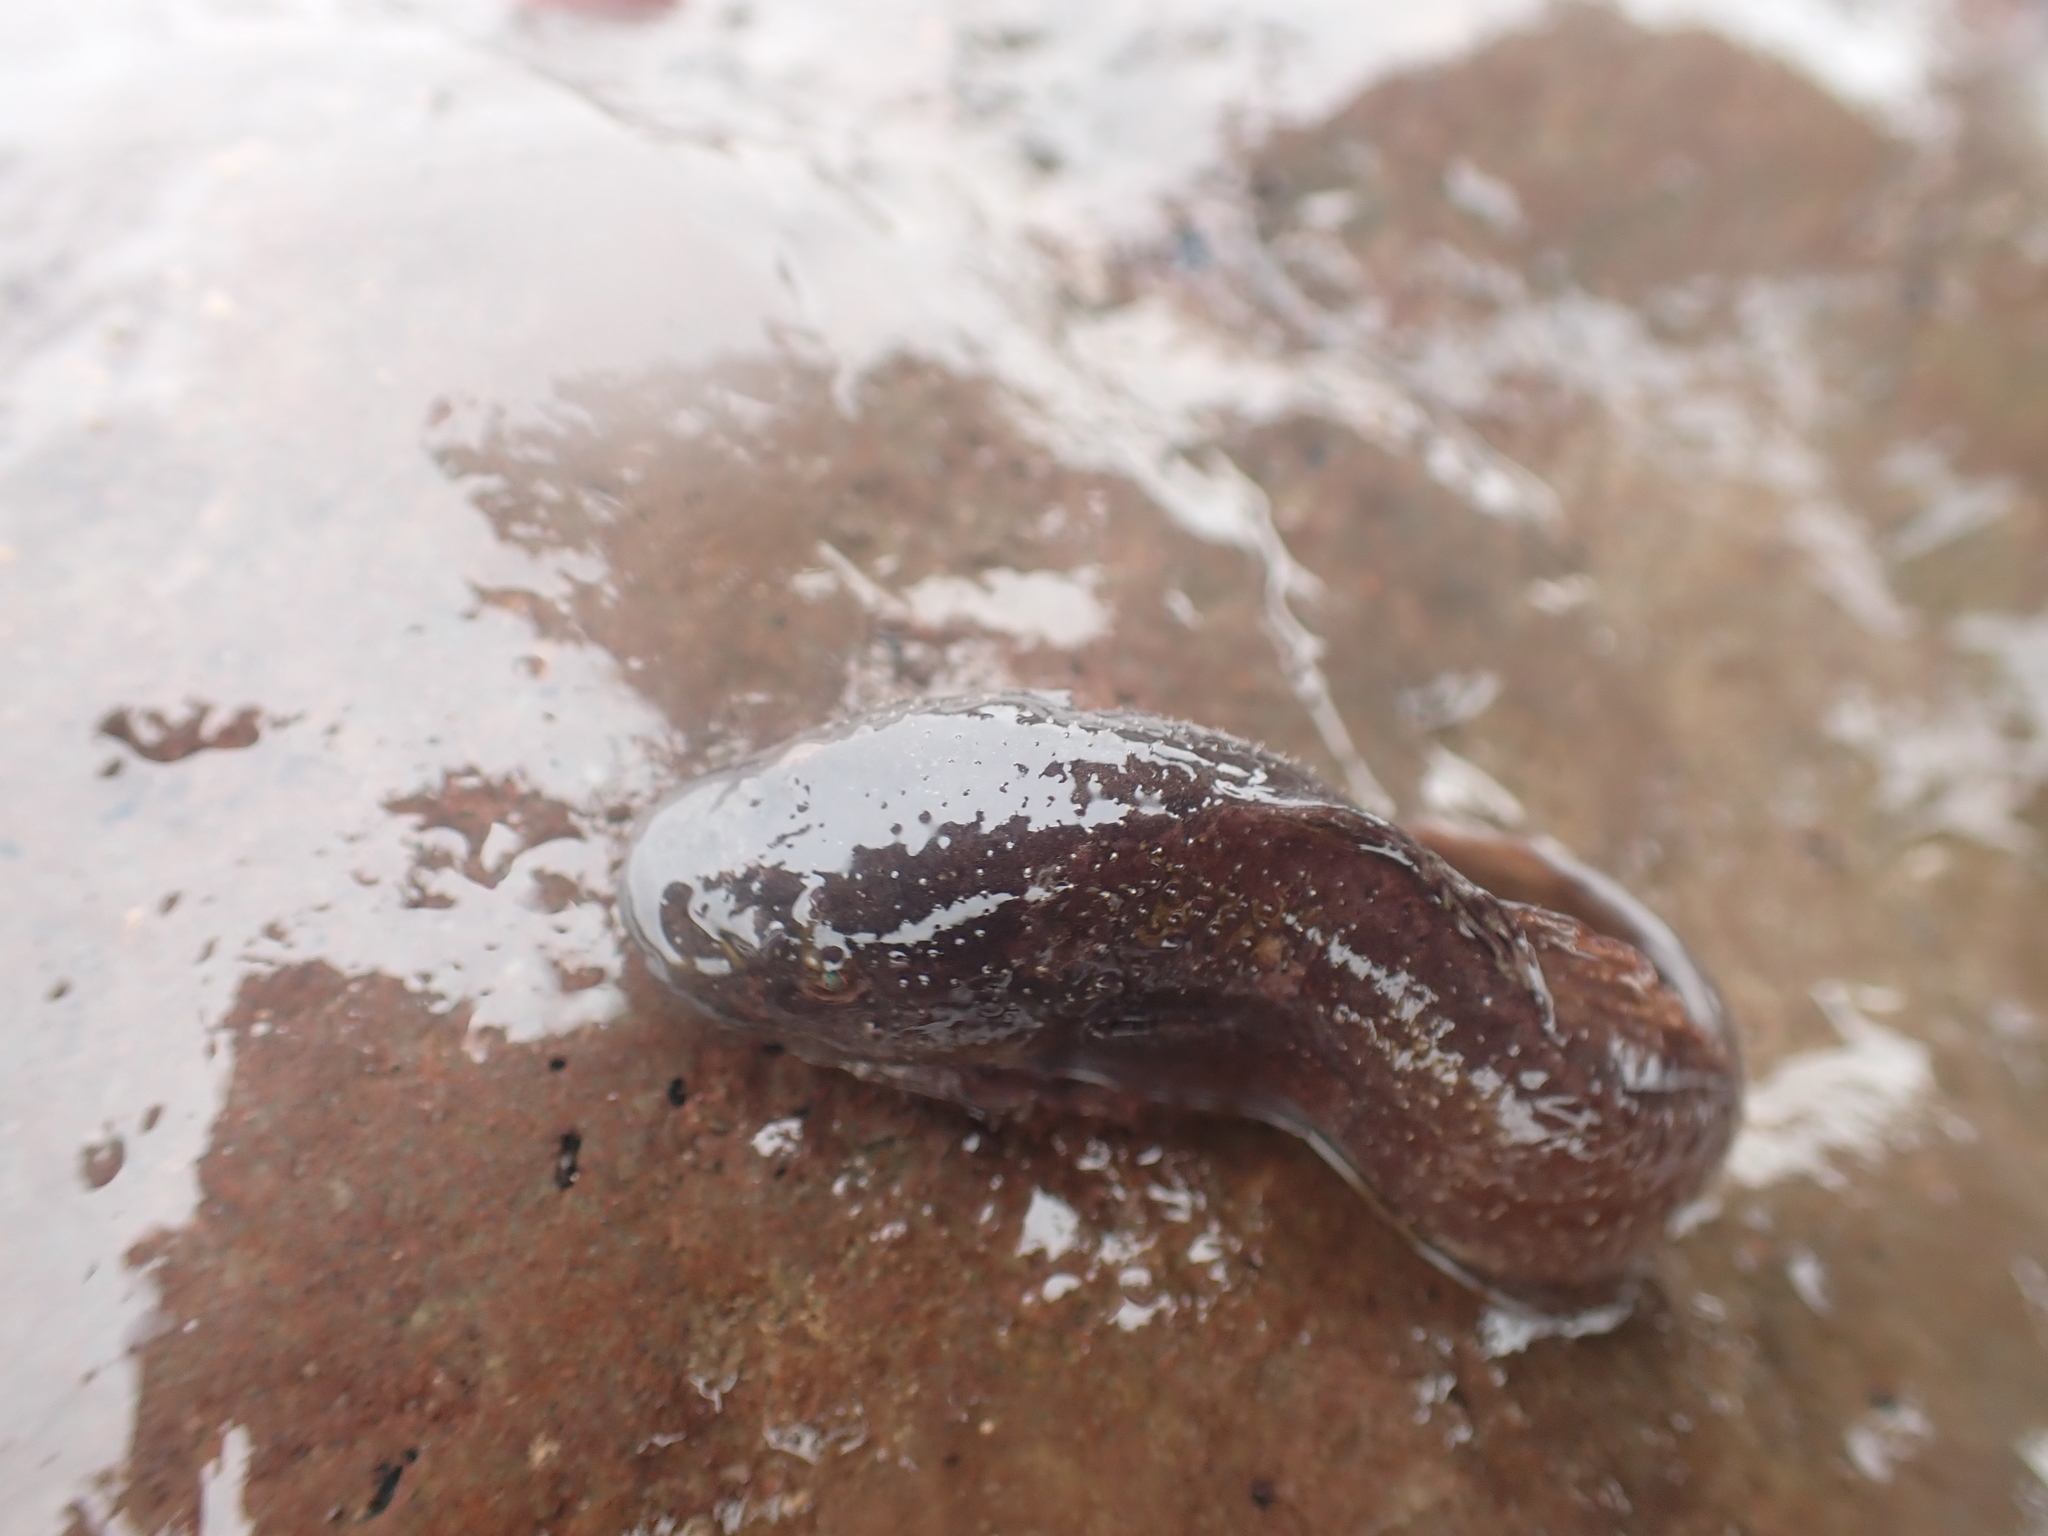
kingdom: Animalia
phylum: Chordata
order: Scorpaeniformes
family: Liparidae
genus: Liparis
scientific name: Liparis atlanticus
